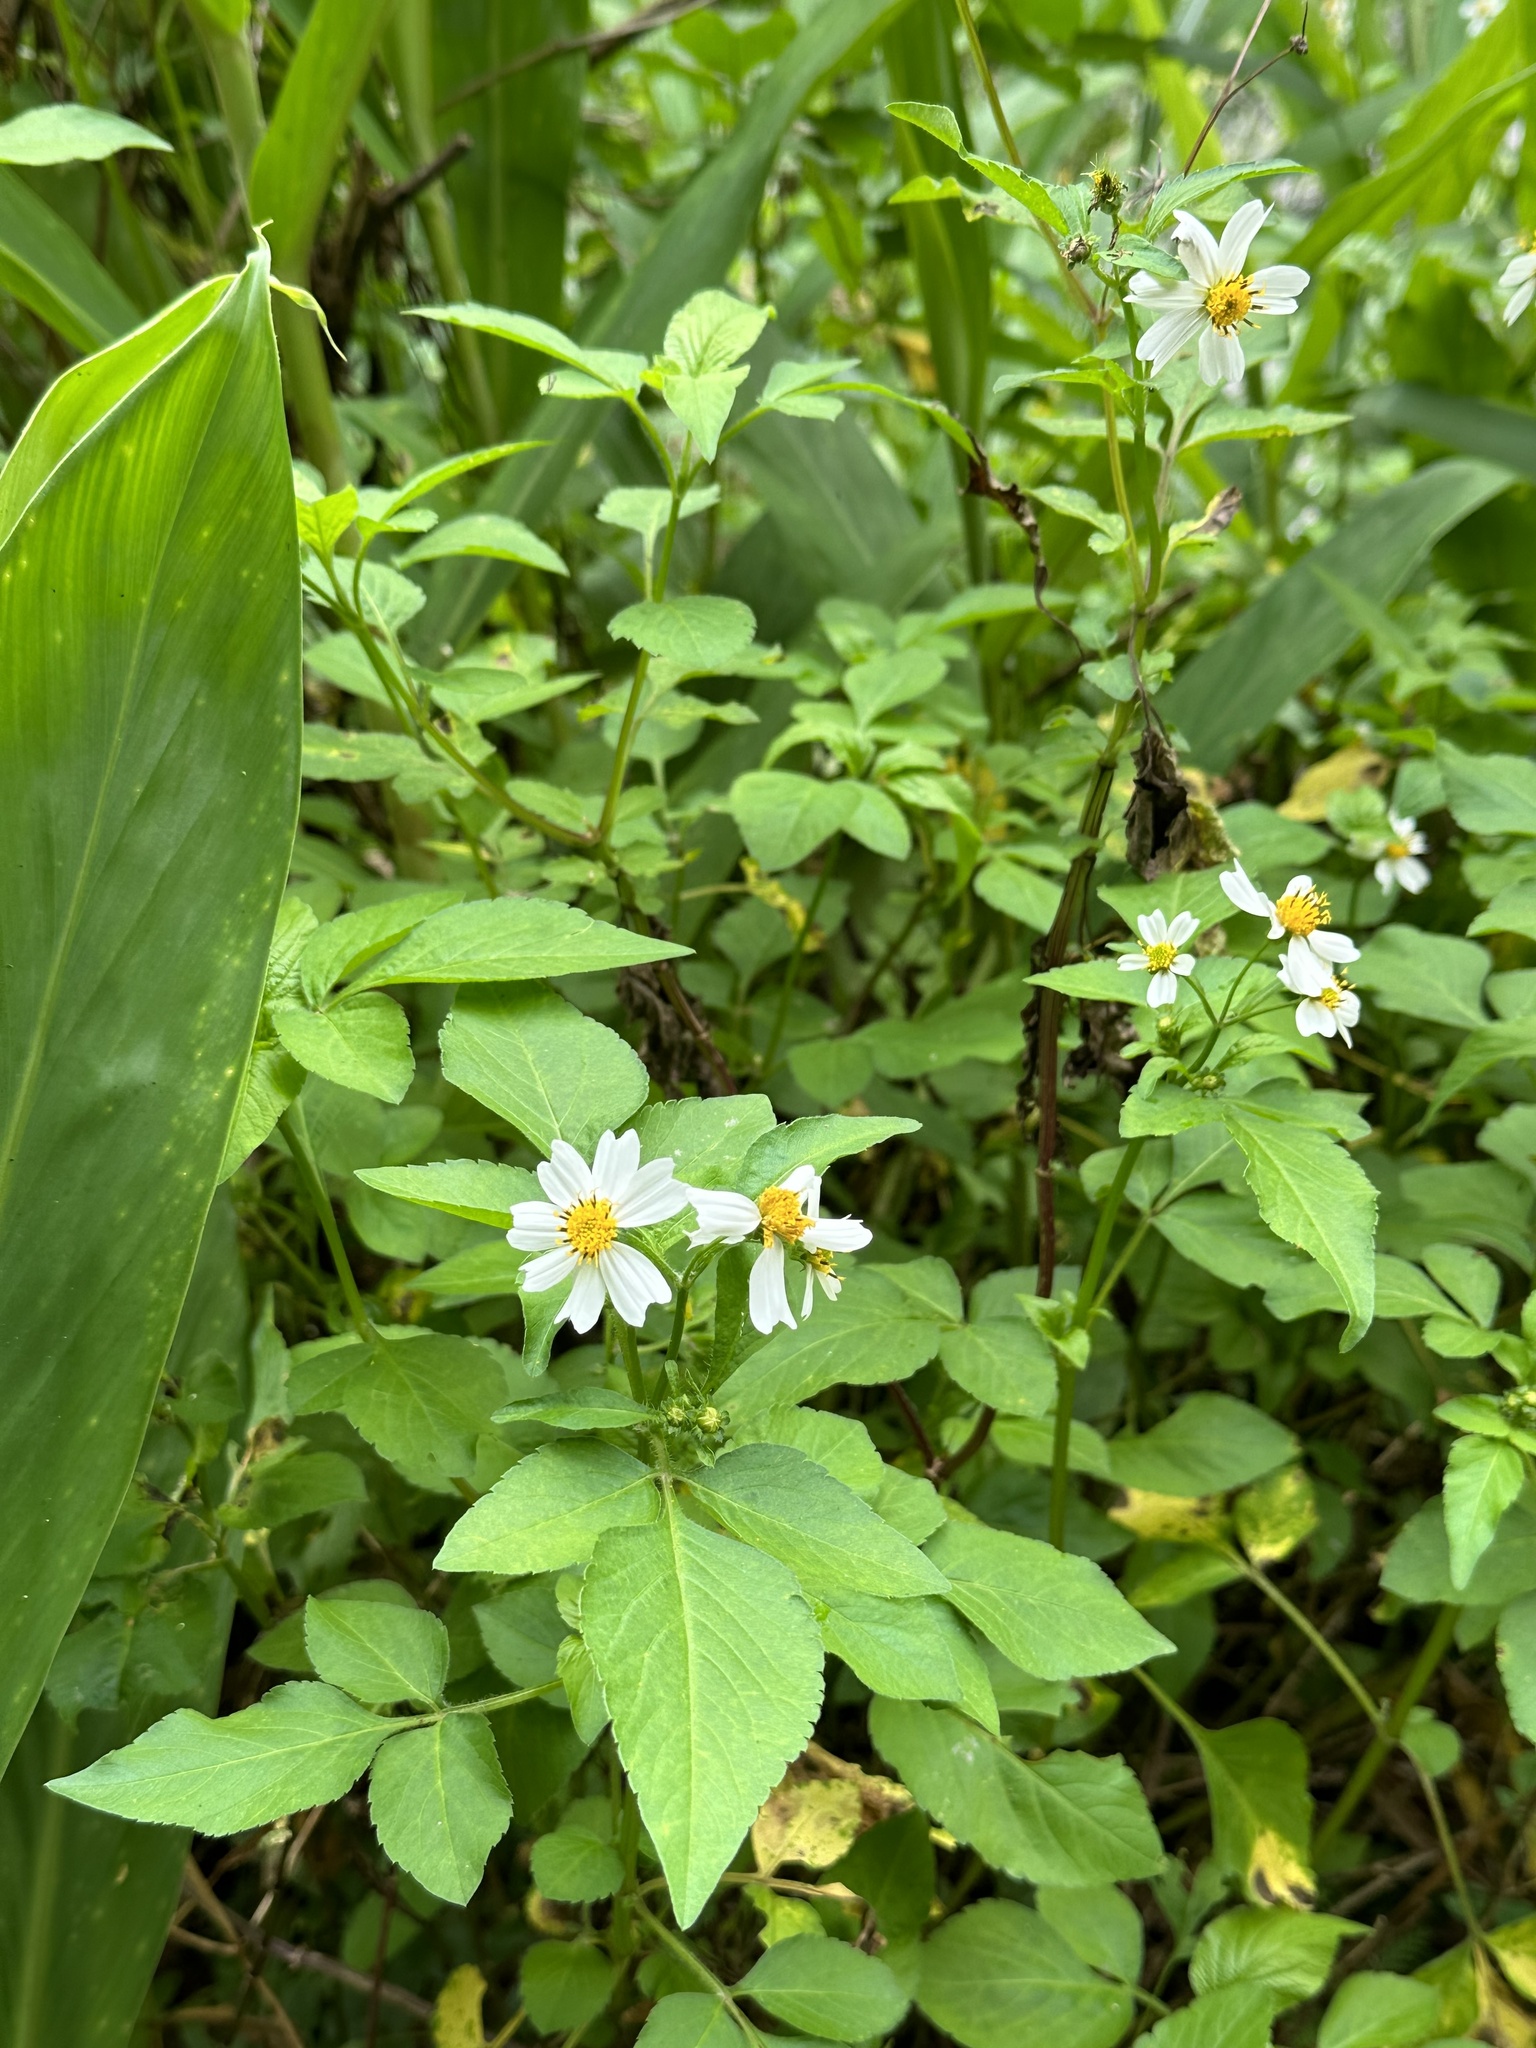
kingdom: Plantae
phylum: Tracheophyta
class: Magnoliopsida
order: Asterales
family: Asteraceae
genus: Bidens
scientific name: Bidens alba
